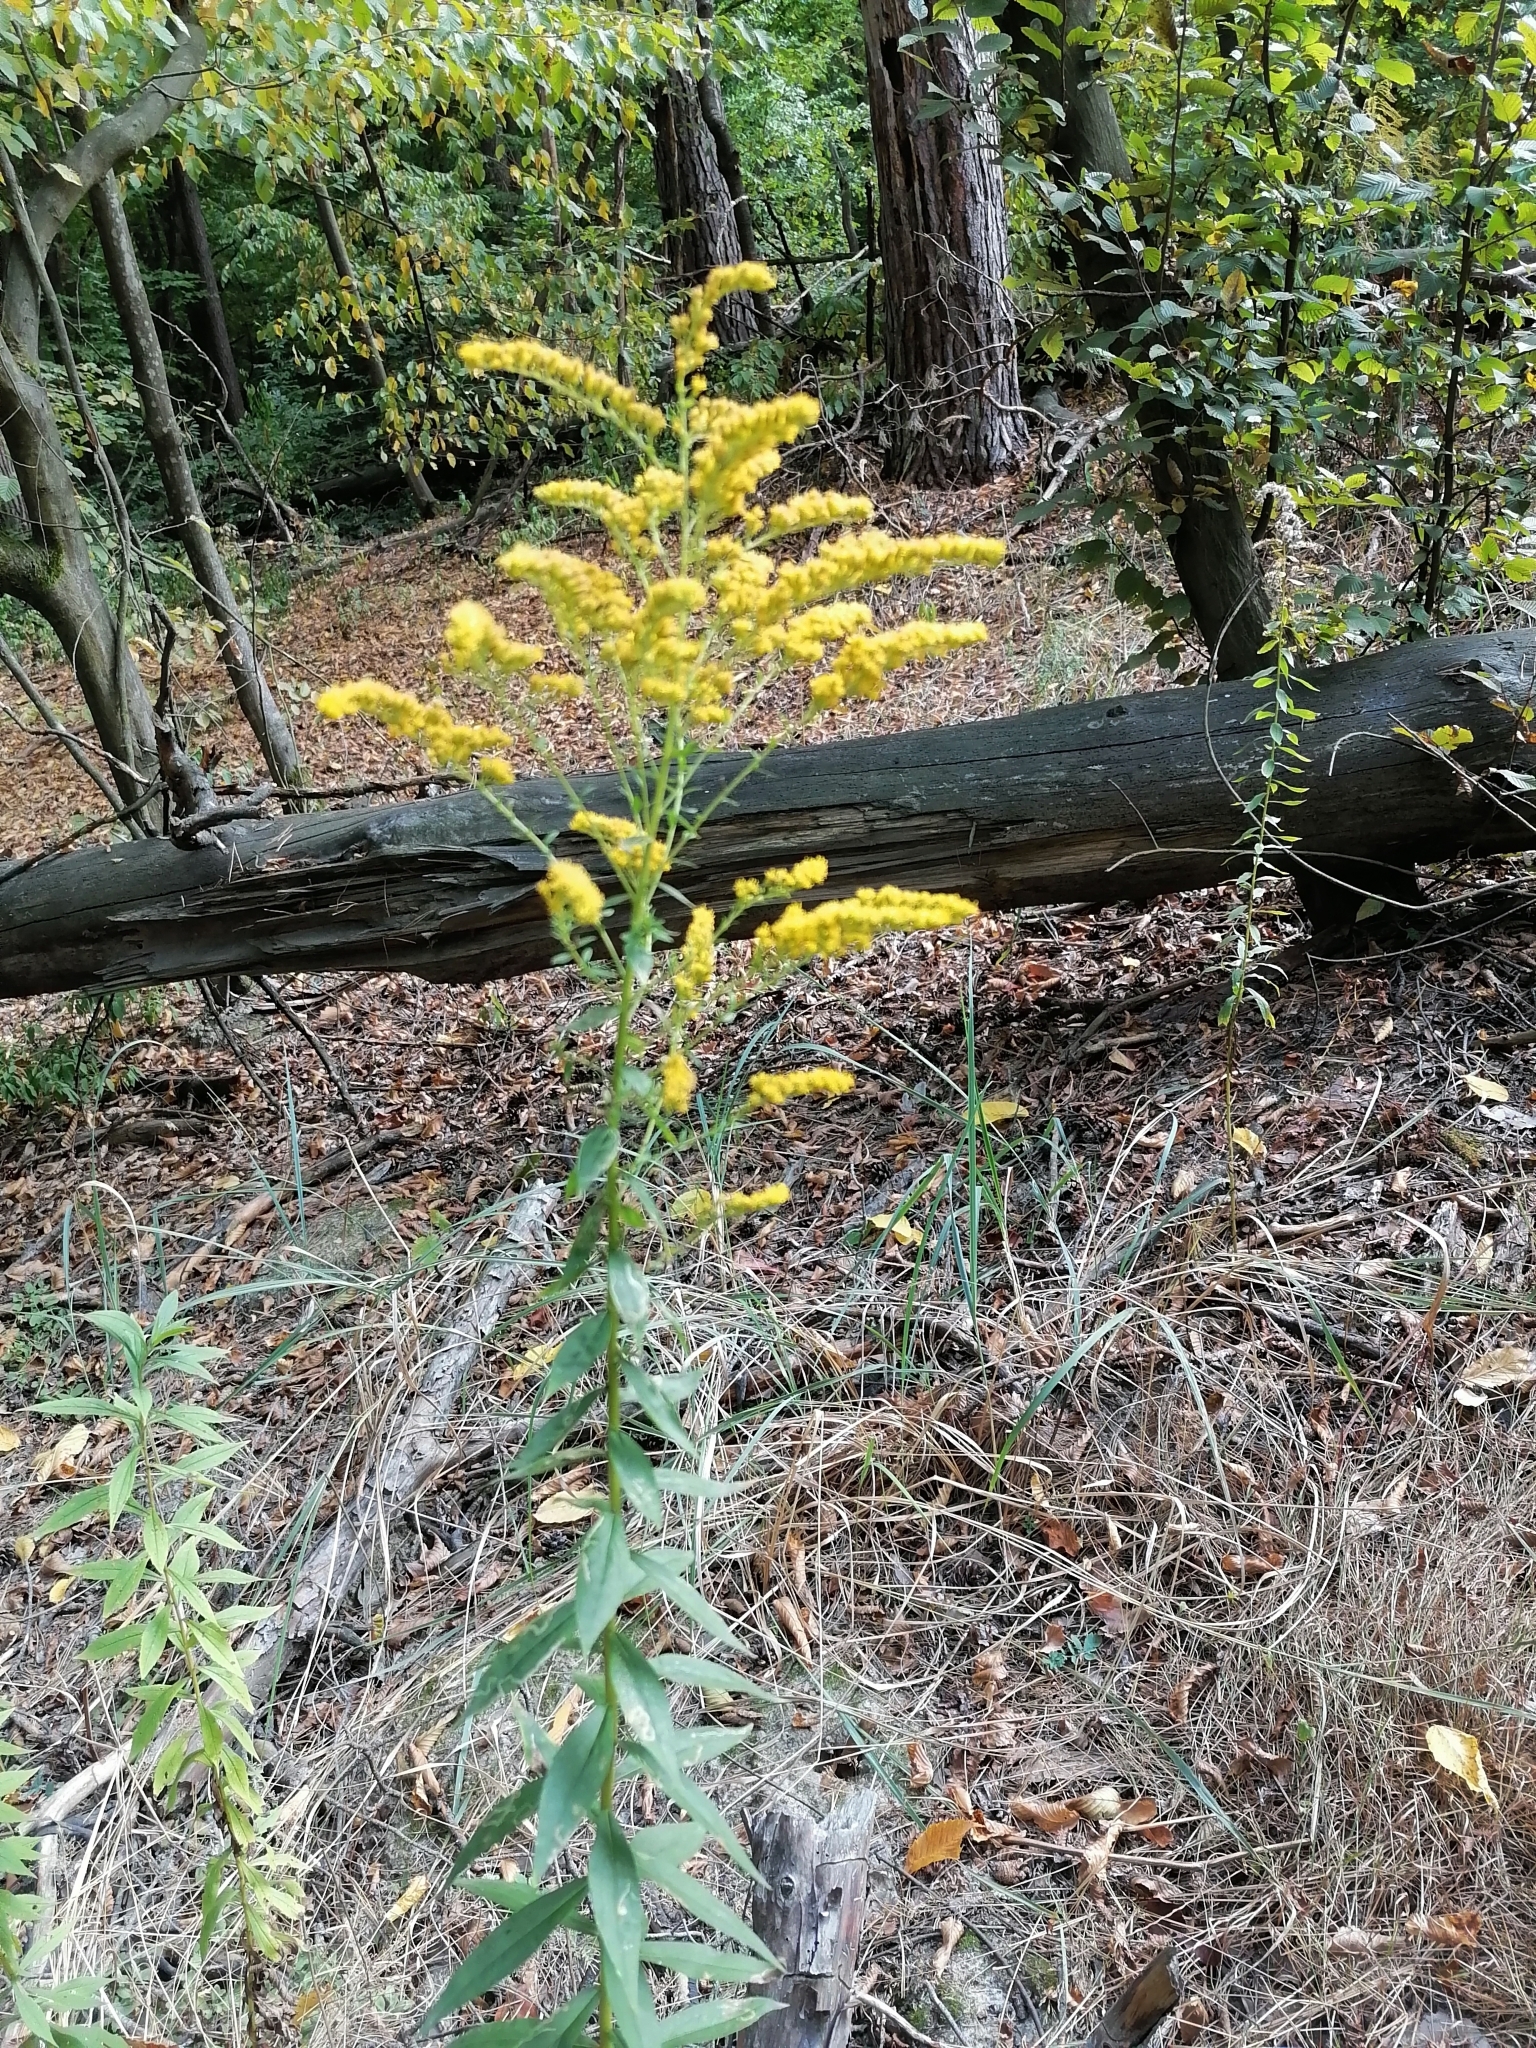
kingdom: Plantae
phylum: Tracheophyta
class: Magnoliopsida
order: Asterales
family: Asteraceae
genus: Solidago
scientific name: Solidago canadensis
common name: Canada goldenrod
